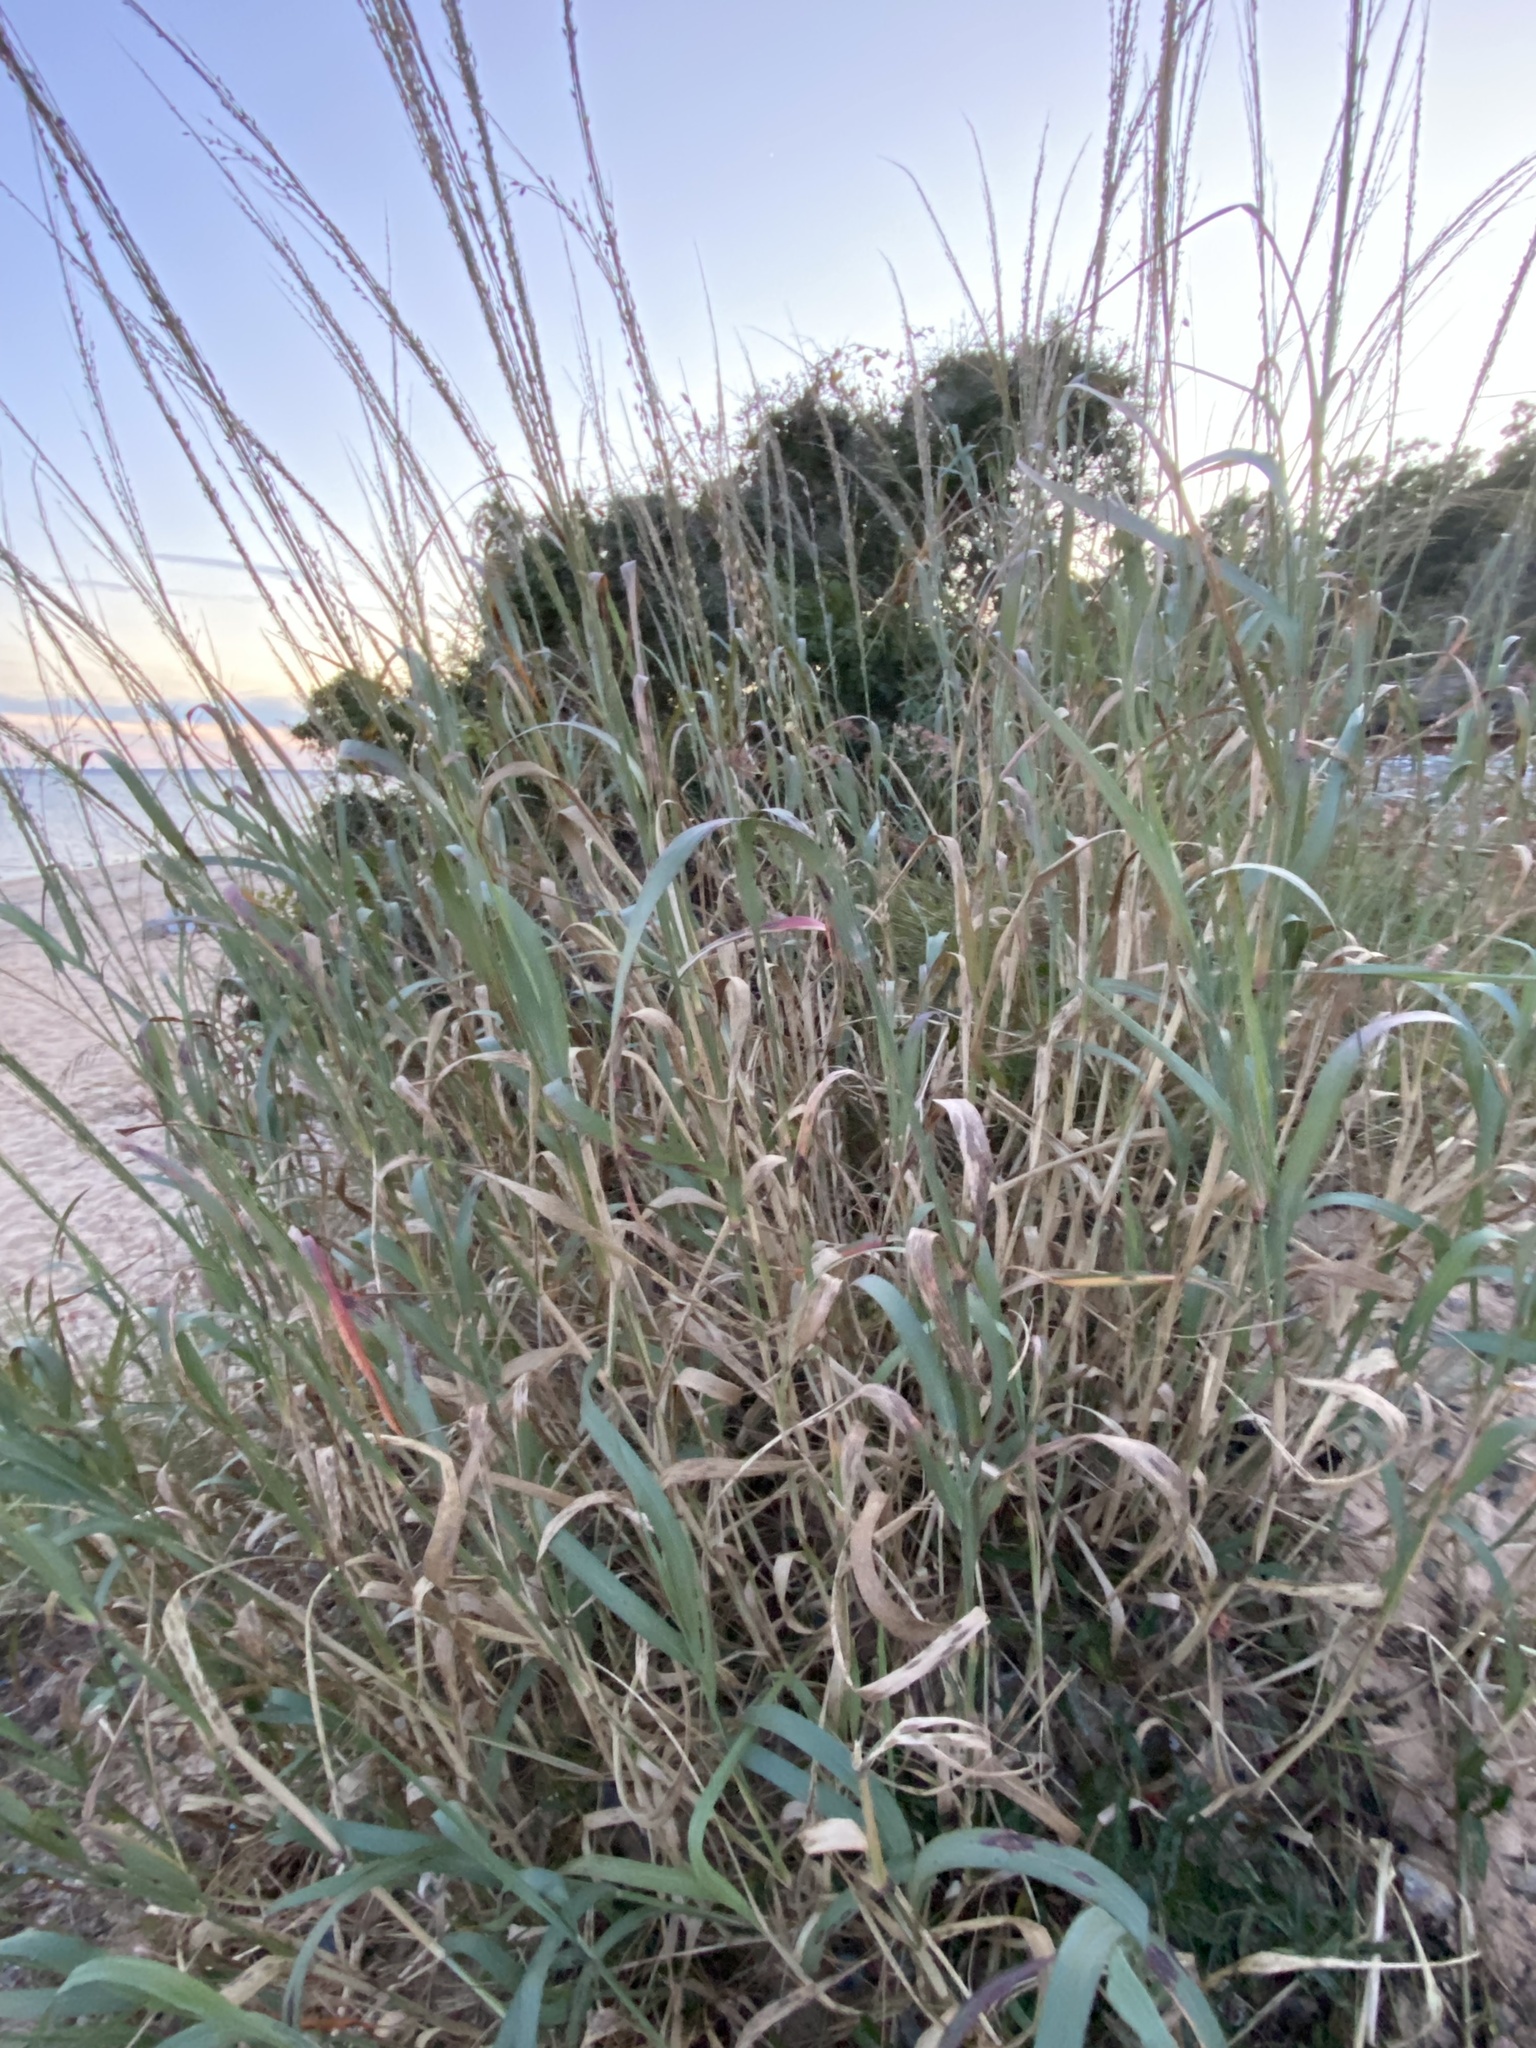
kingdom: Plantae
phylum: Tracheophyta
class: Liliopsida
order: Poales
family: Poaceae
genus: Panicum
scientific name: Panicum amarum
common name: Bitter panicum
